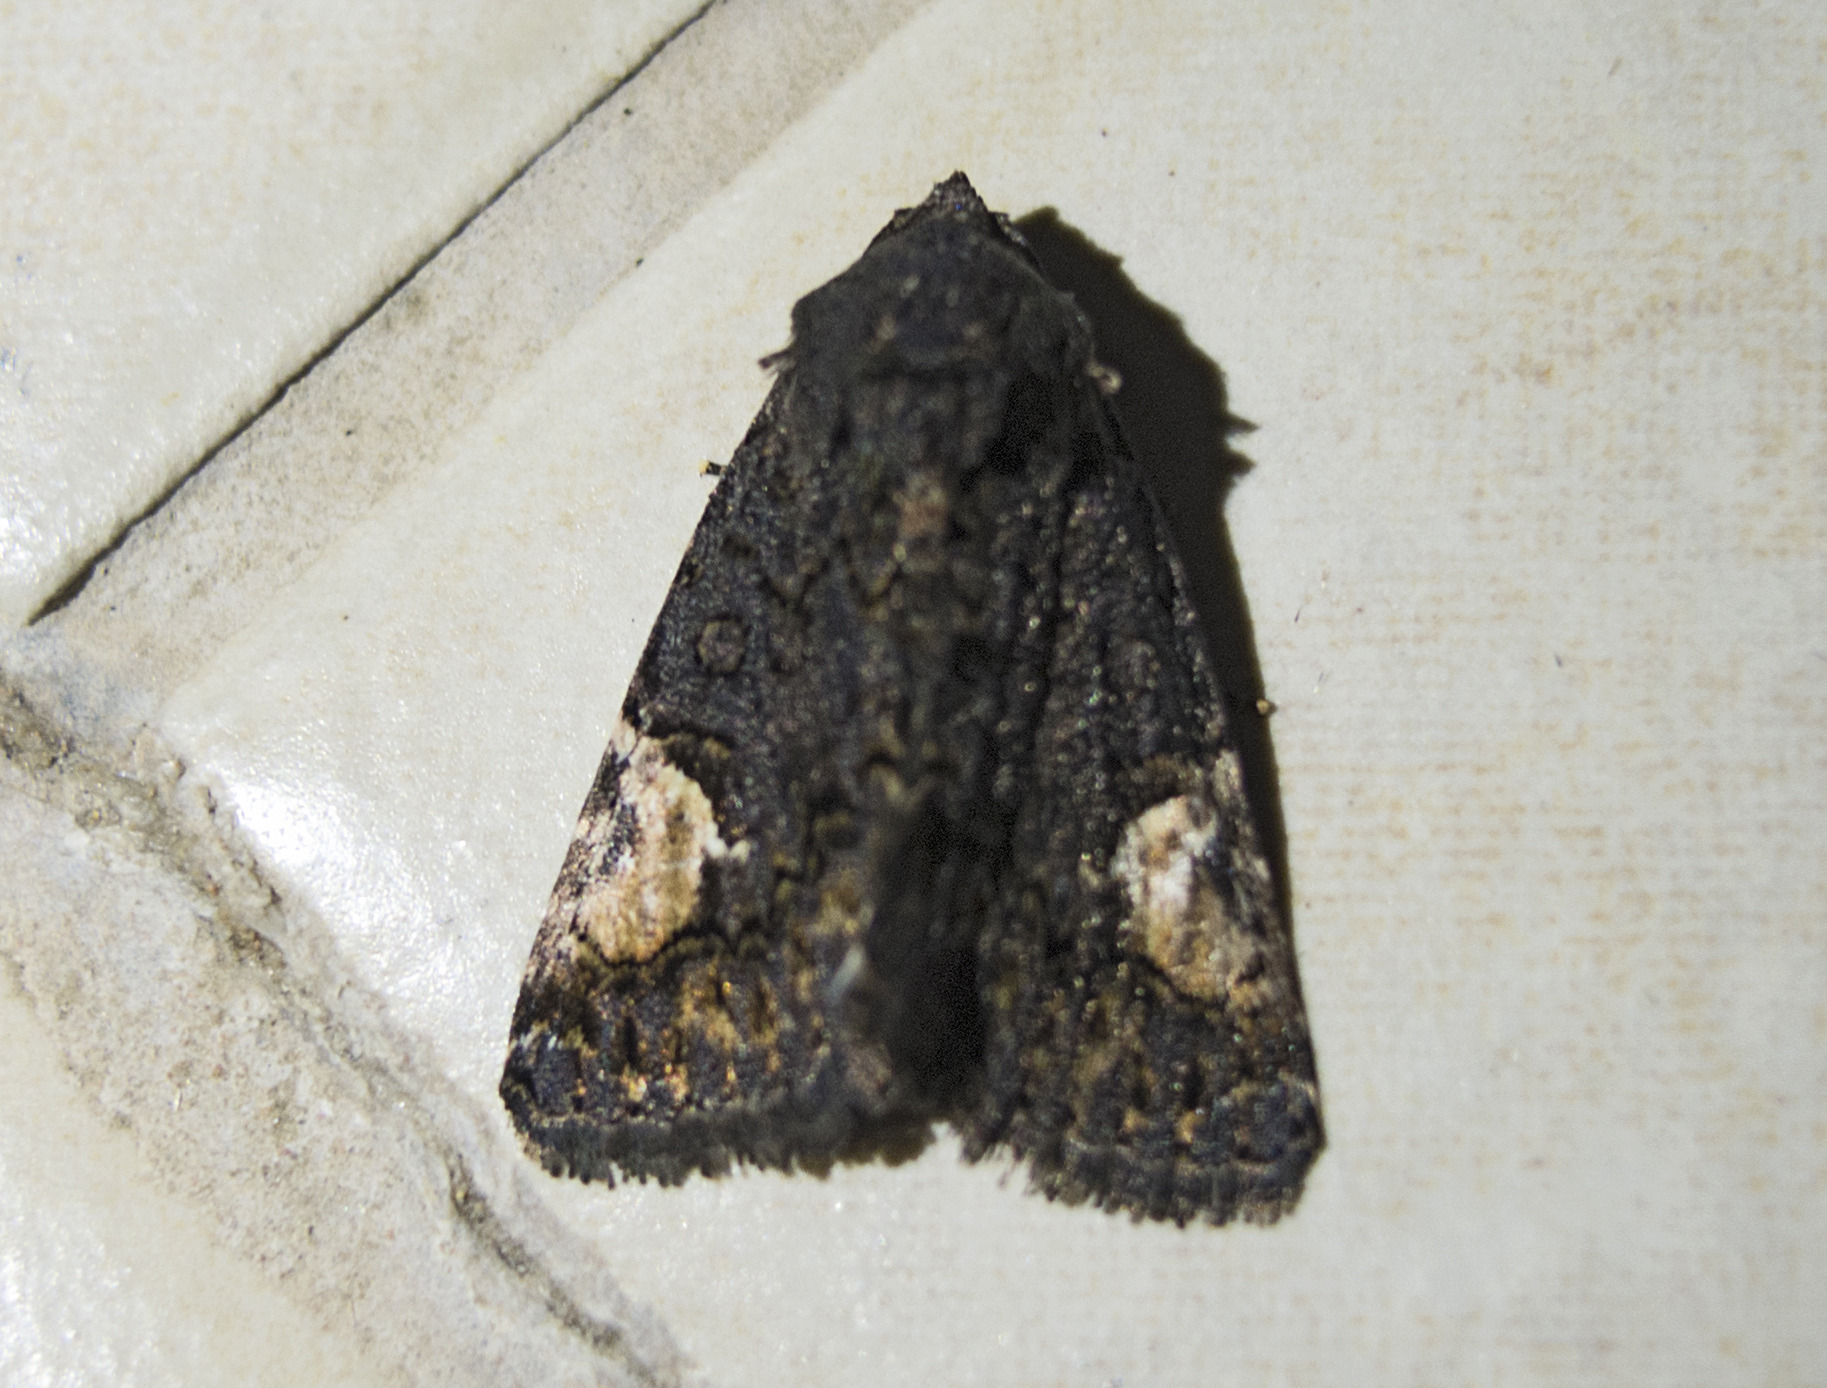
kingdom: Animalia
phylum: Arthropoda
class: Insecta
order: Lepidoptera
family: Noctuidae
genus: Aedia
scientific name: Aedia funesta
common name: The druid
